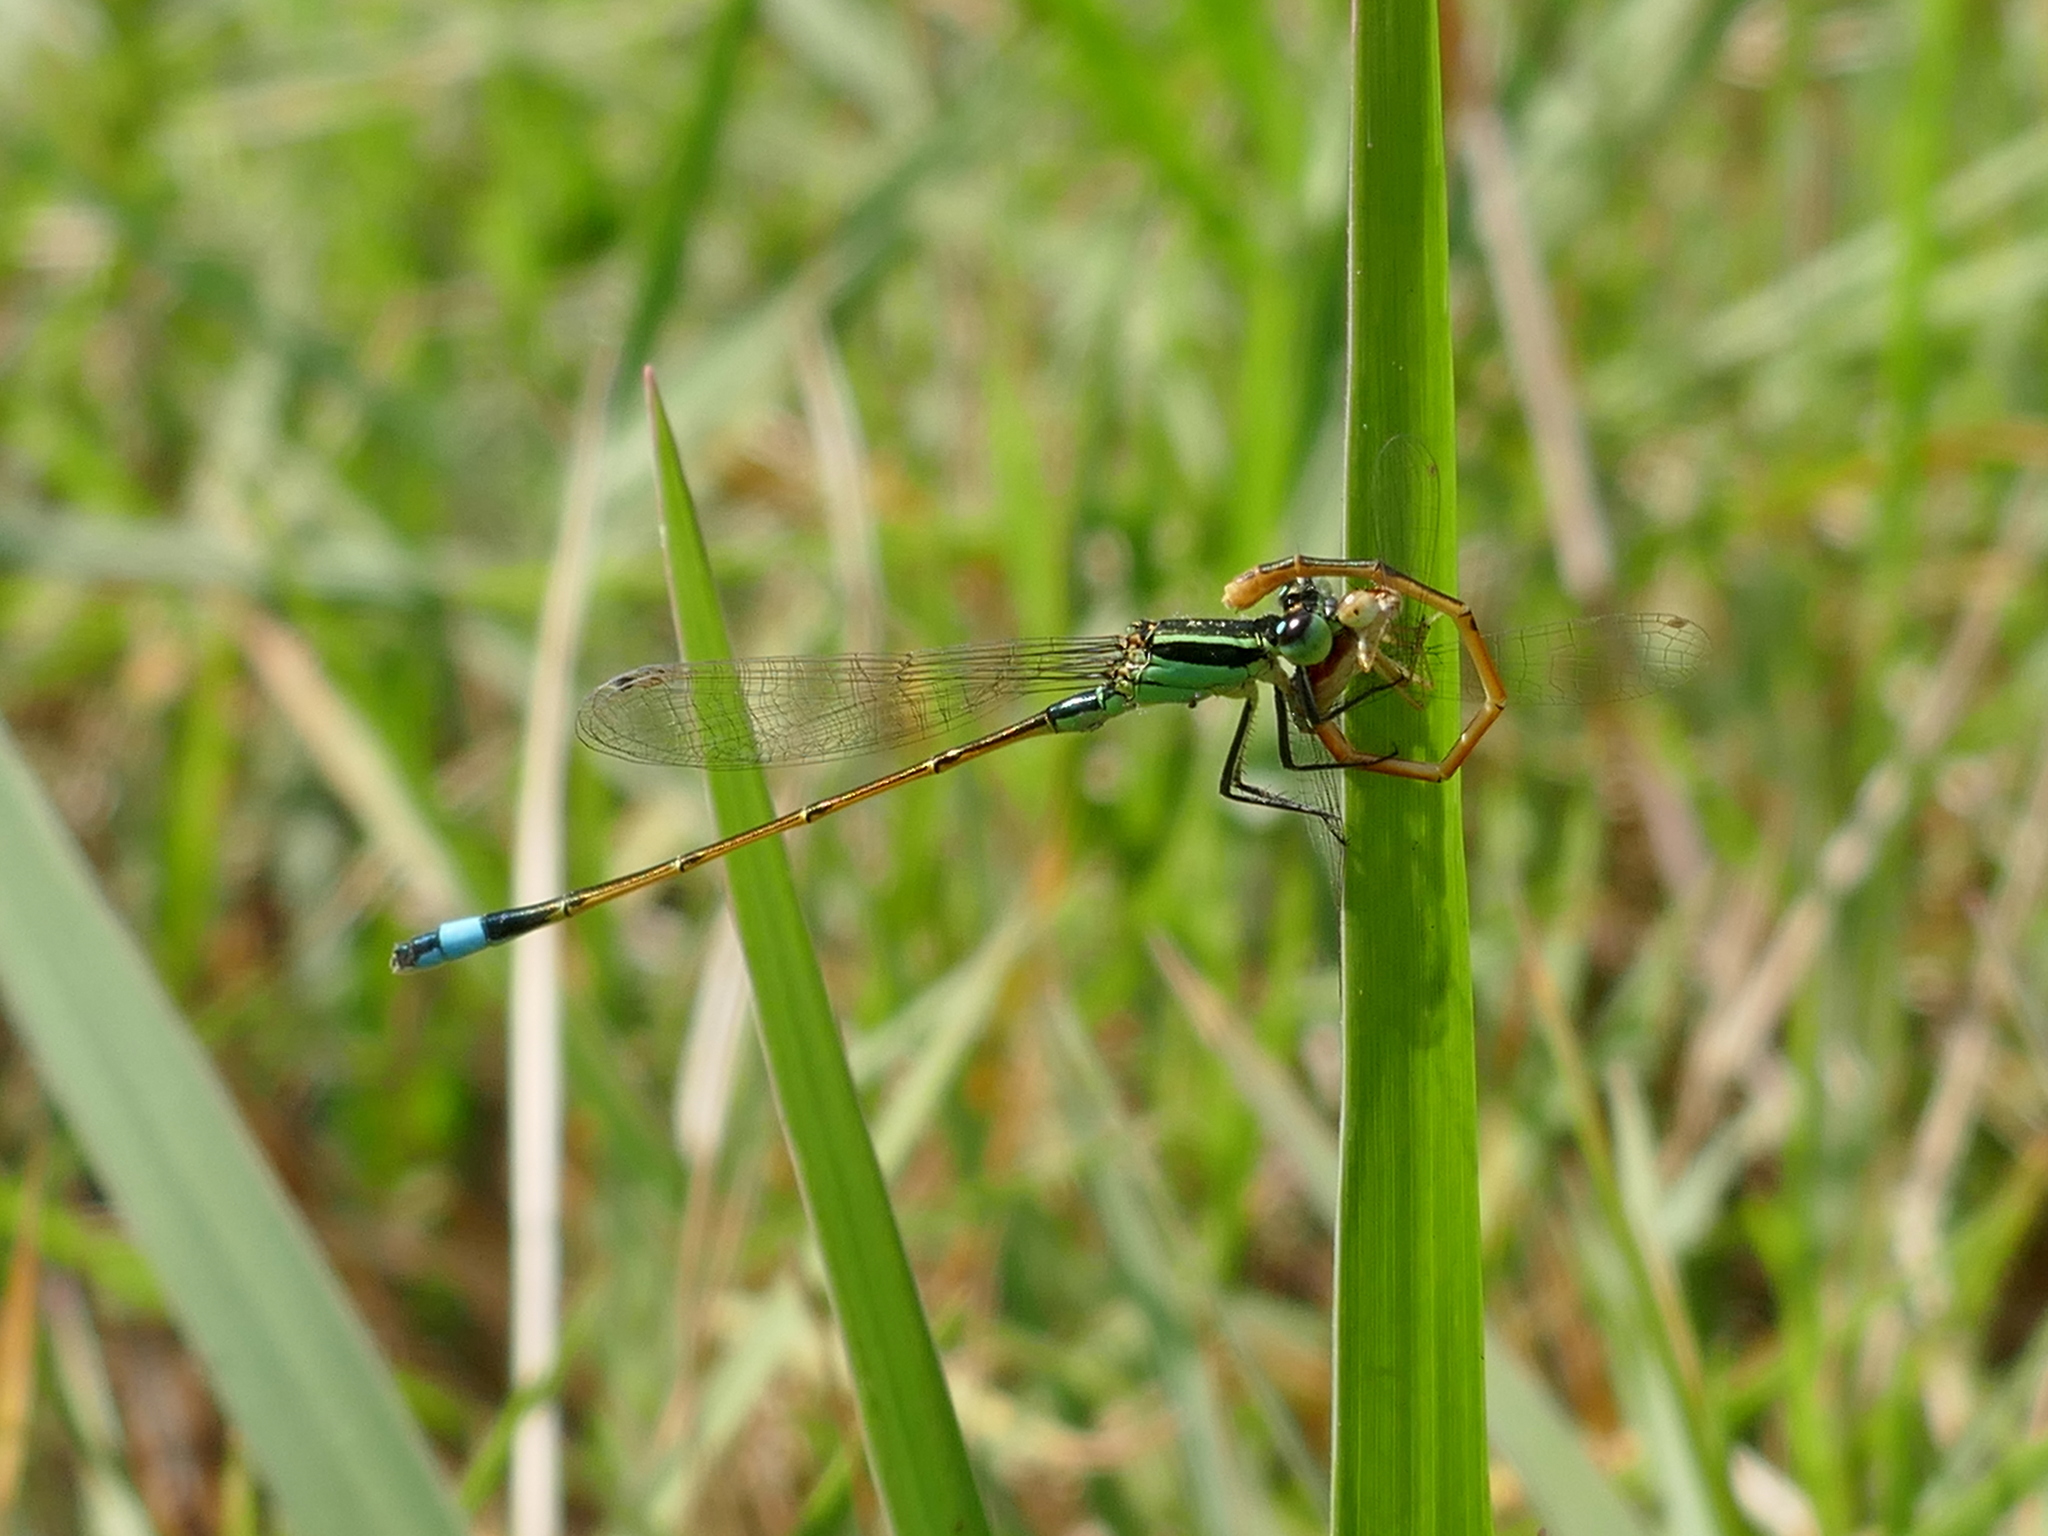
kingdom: Animalia
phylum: Arthropoda
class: Insecta
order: Odonata
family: Coenagrionidae
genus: Ischnura
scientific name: Ischnura ramburii
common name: Rambur's forktail
